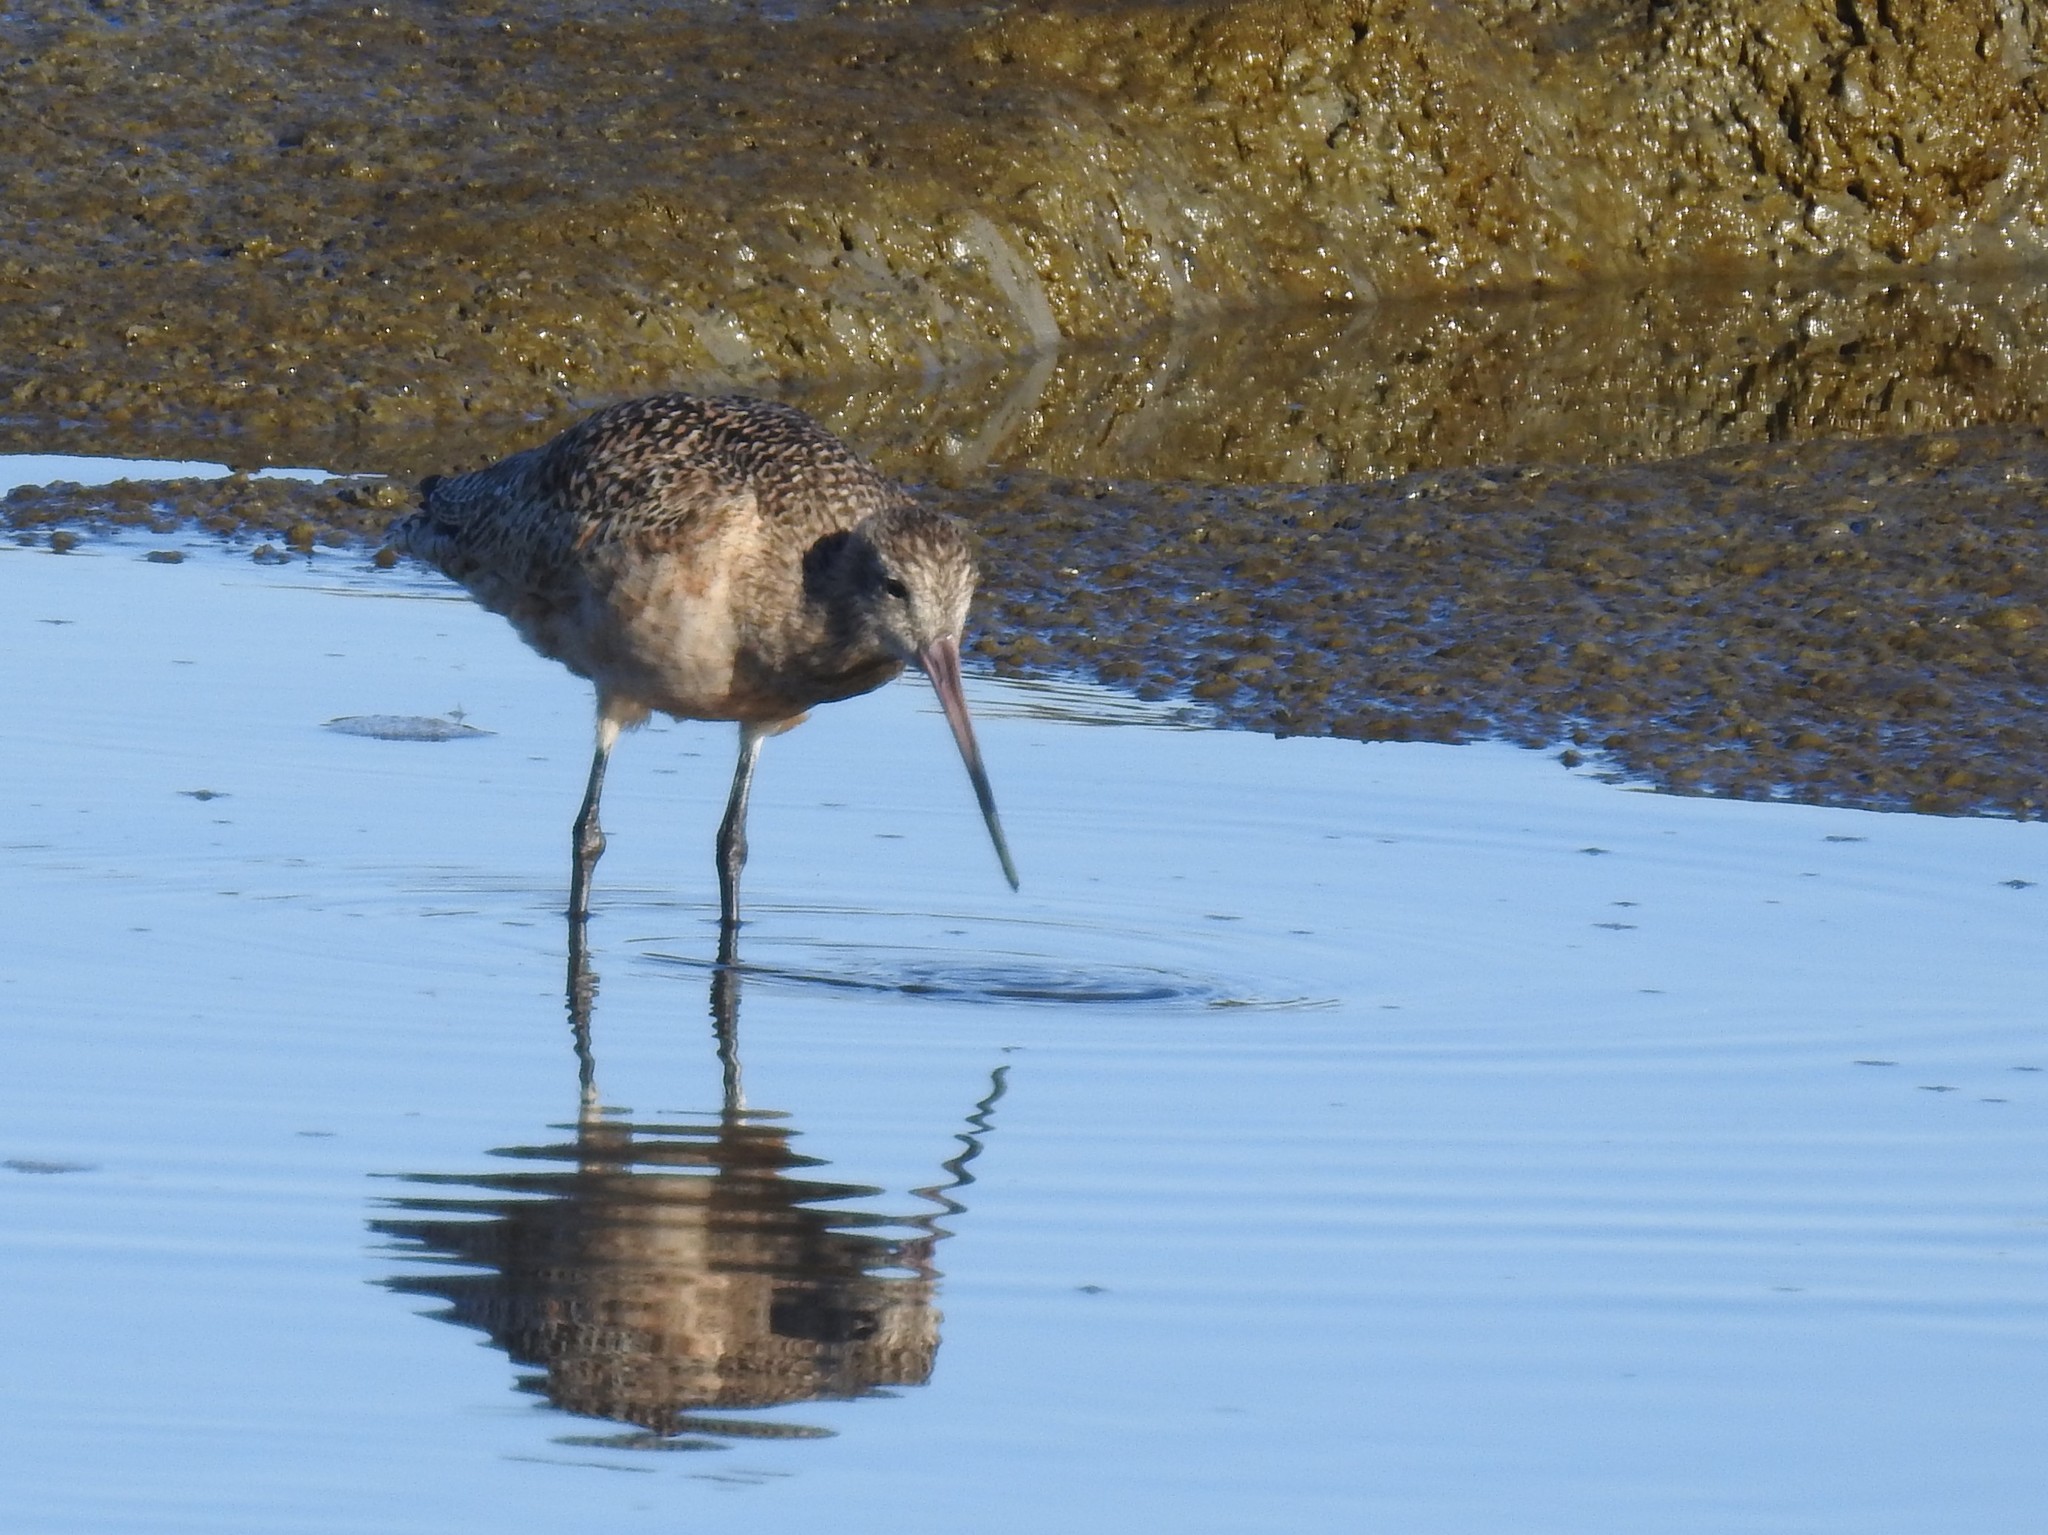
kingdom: Animalia
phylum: Chordata
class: Aves
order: Charadriiformes
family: Scolopacidae
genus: Limosa
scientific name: Limosa fedoa
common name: Marbled godwit
